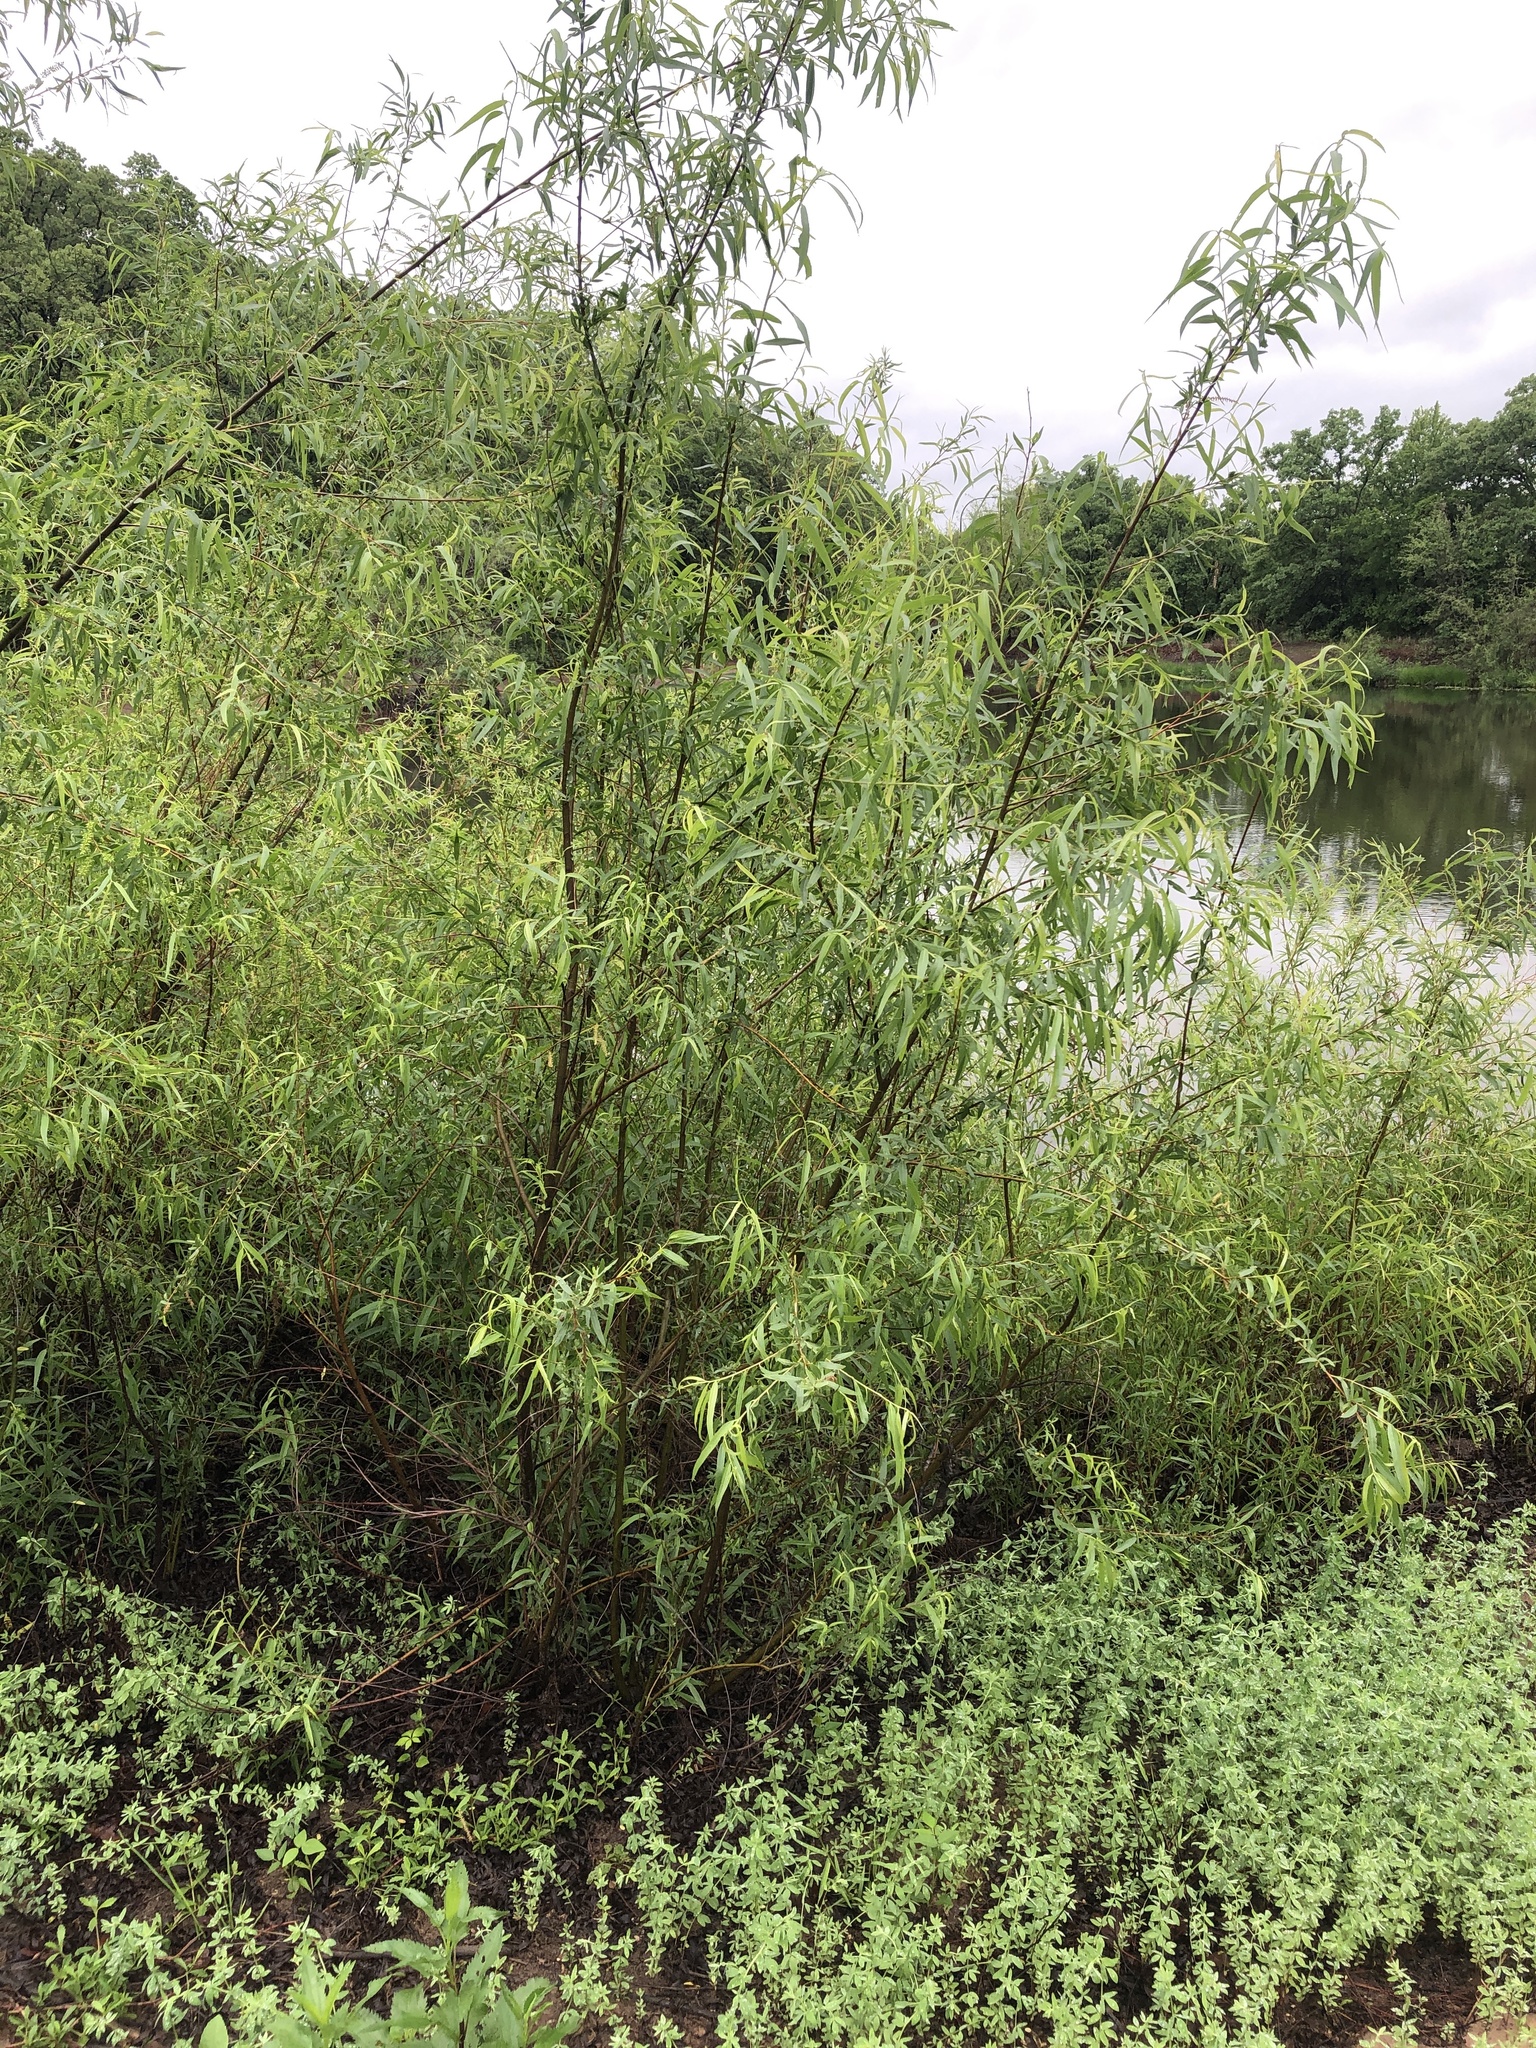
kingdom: Plantae
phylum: Tracheophyta
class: Magnoliopsida
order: Malpighiales
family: Salicaceae
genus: Salix
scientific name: Salix nigra
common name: Black willow
